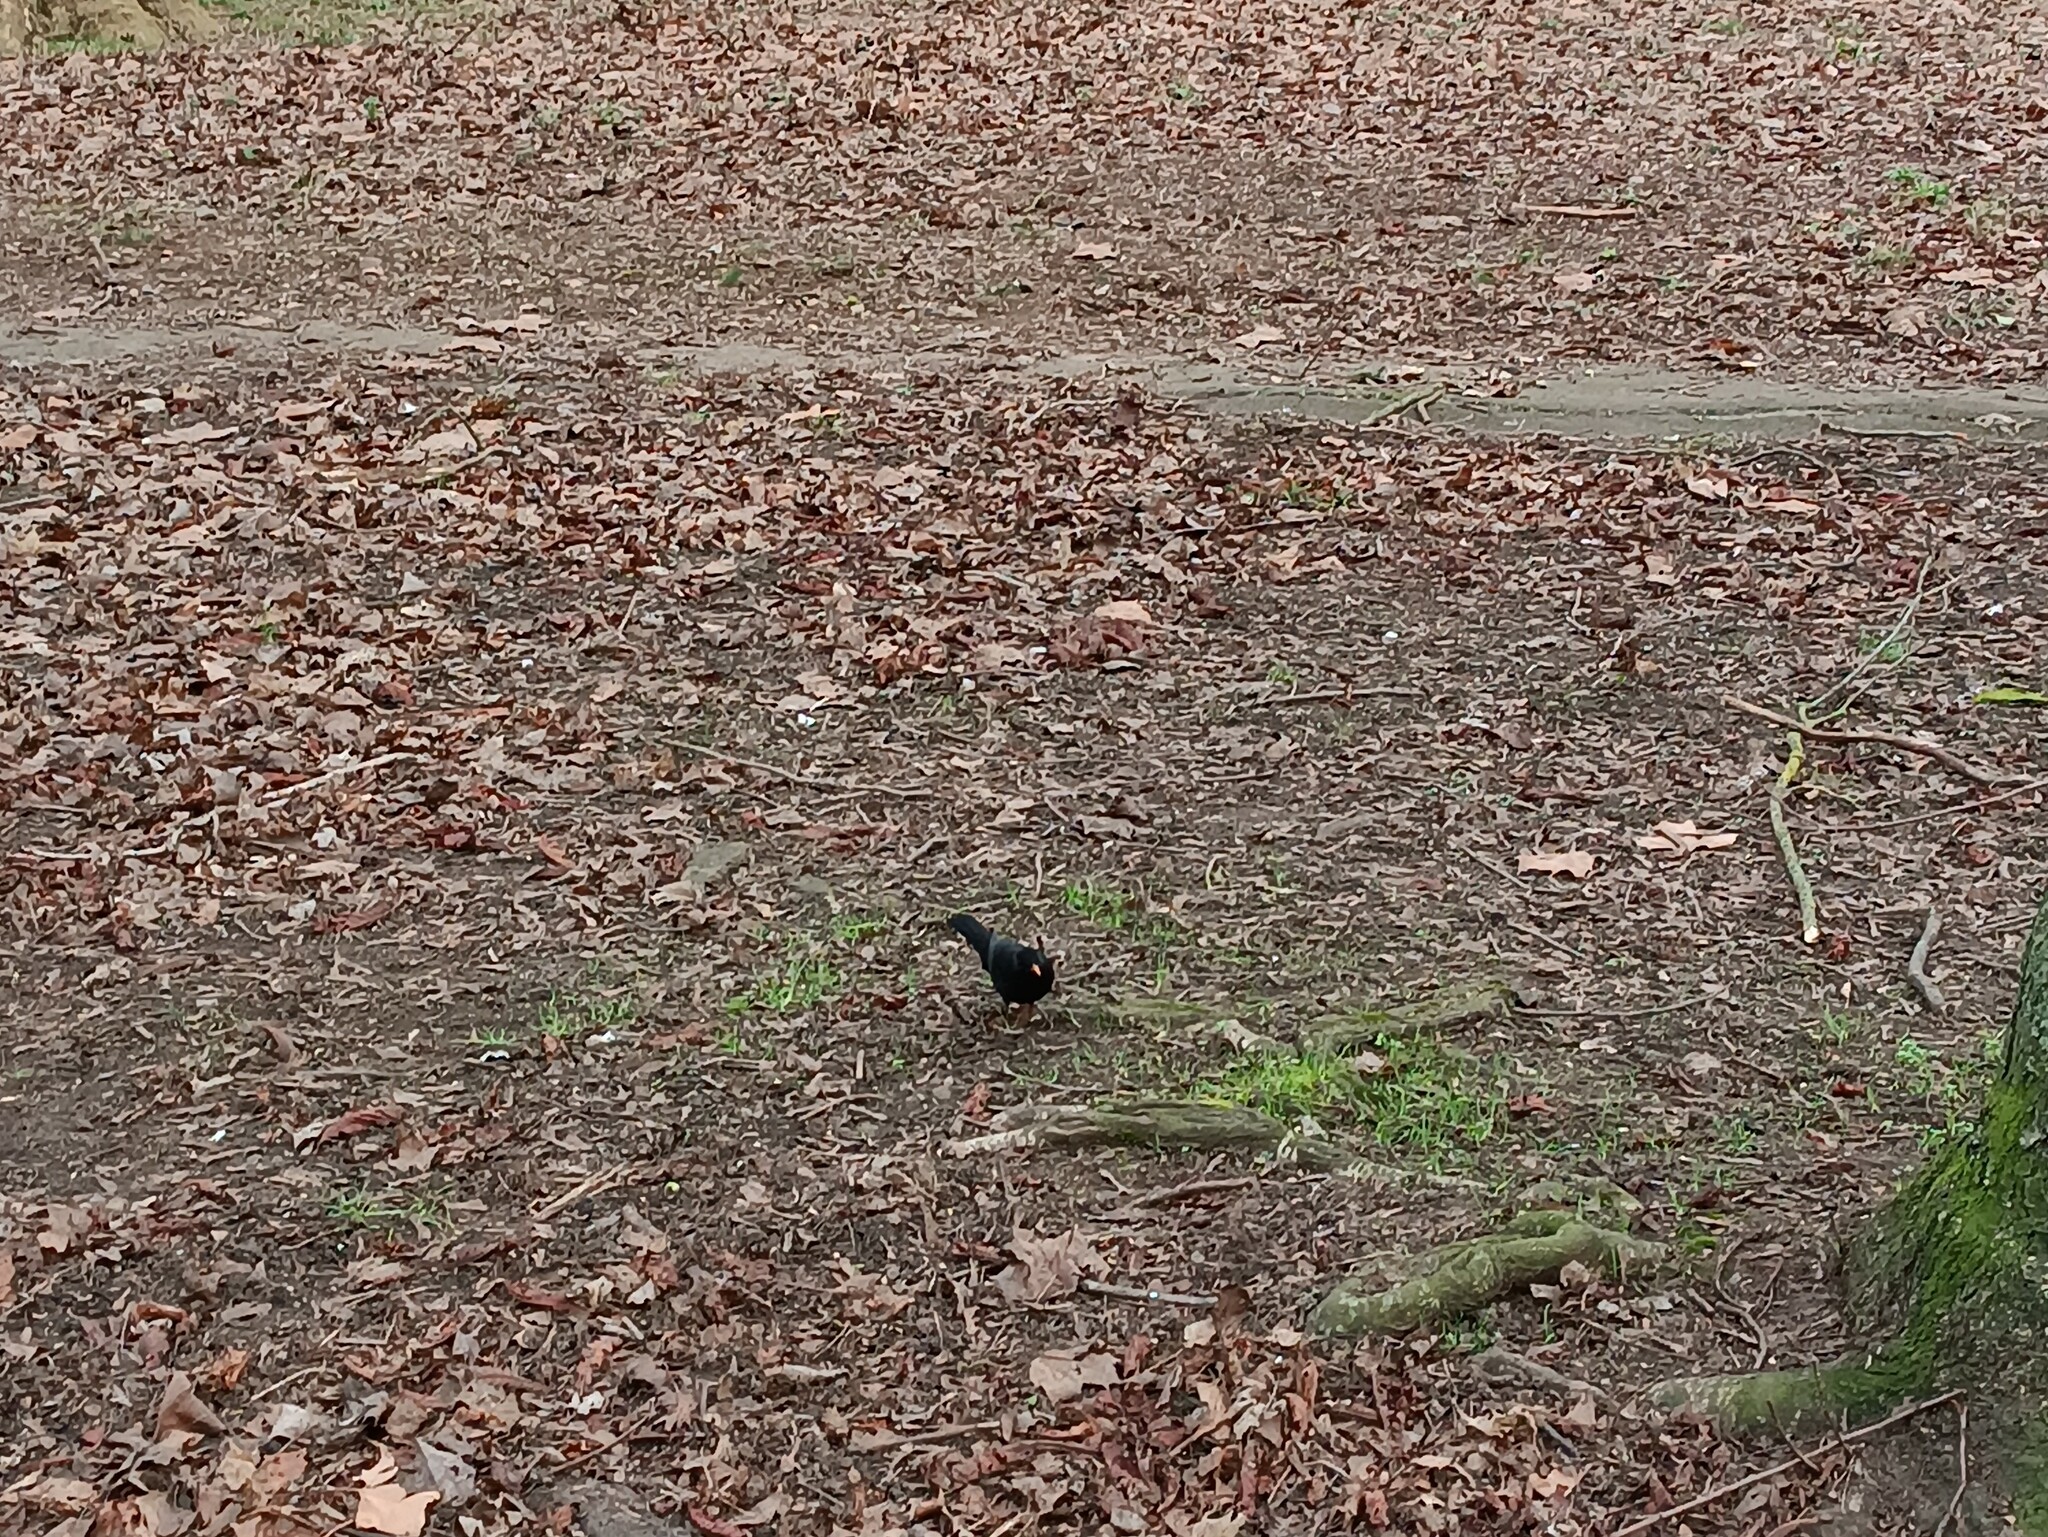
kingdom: Animalia
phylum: Chordata
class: Aves
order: Passeriformes
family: Turdidae
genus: Turdus
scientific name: Turdus merula
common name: Common blackbird
